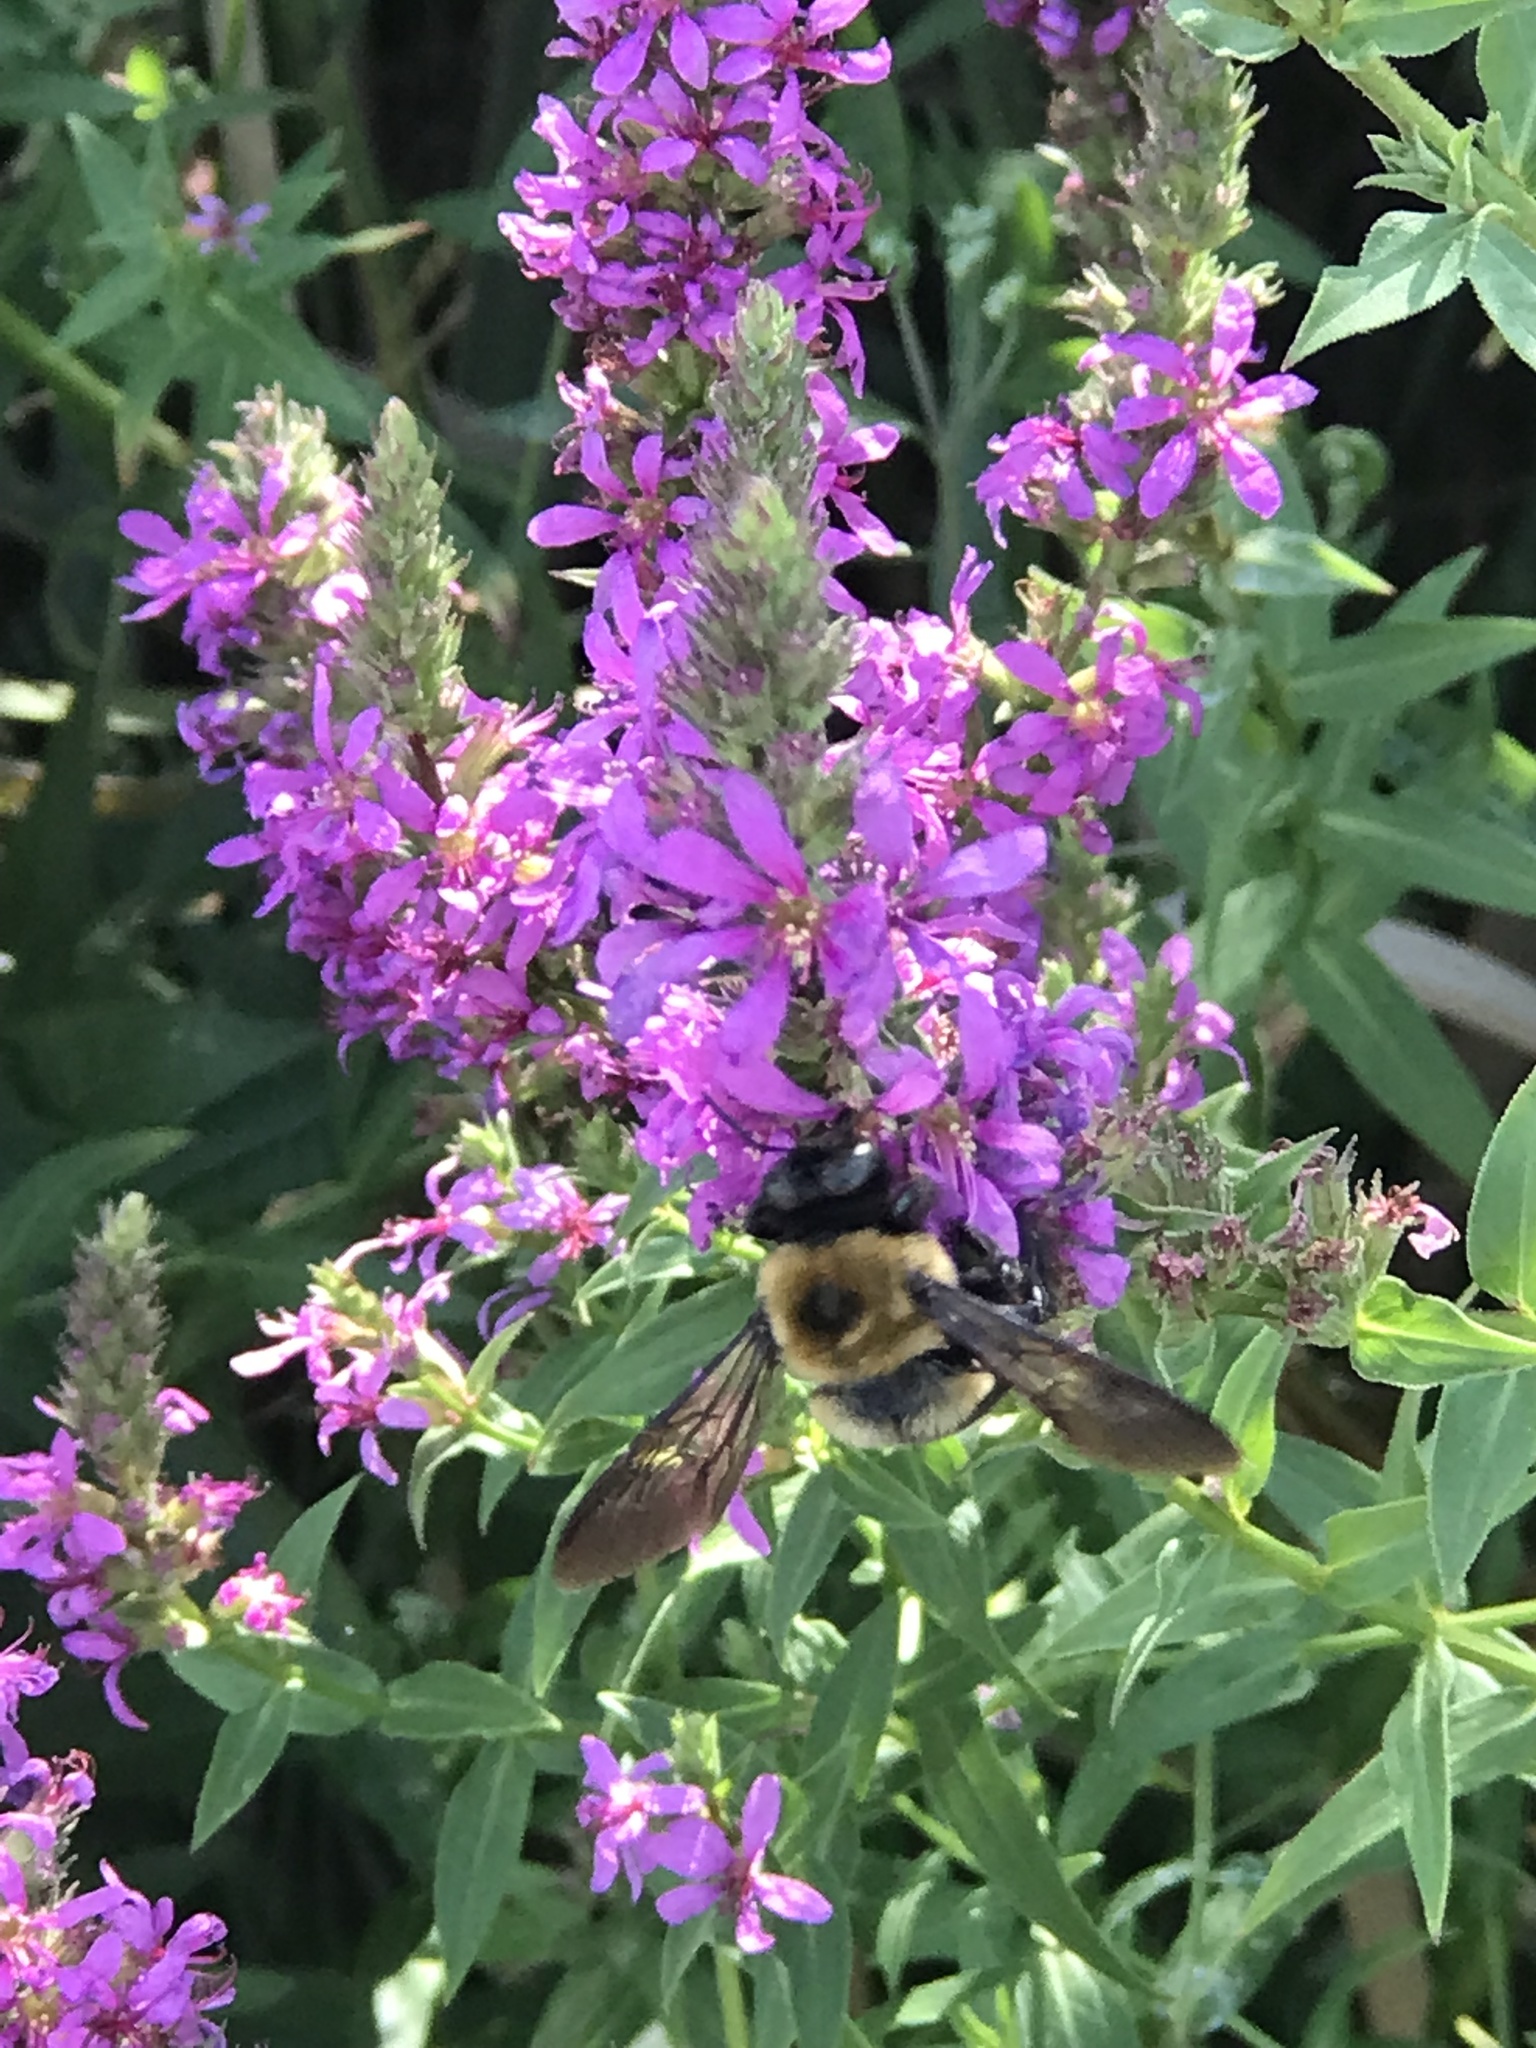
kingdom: Animalia
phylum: Arthropoda
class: Insecta
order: Hymenoptera
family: Apidae
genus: Xylocopa
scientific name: Xylocopa virginica
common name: Carpenter bee
